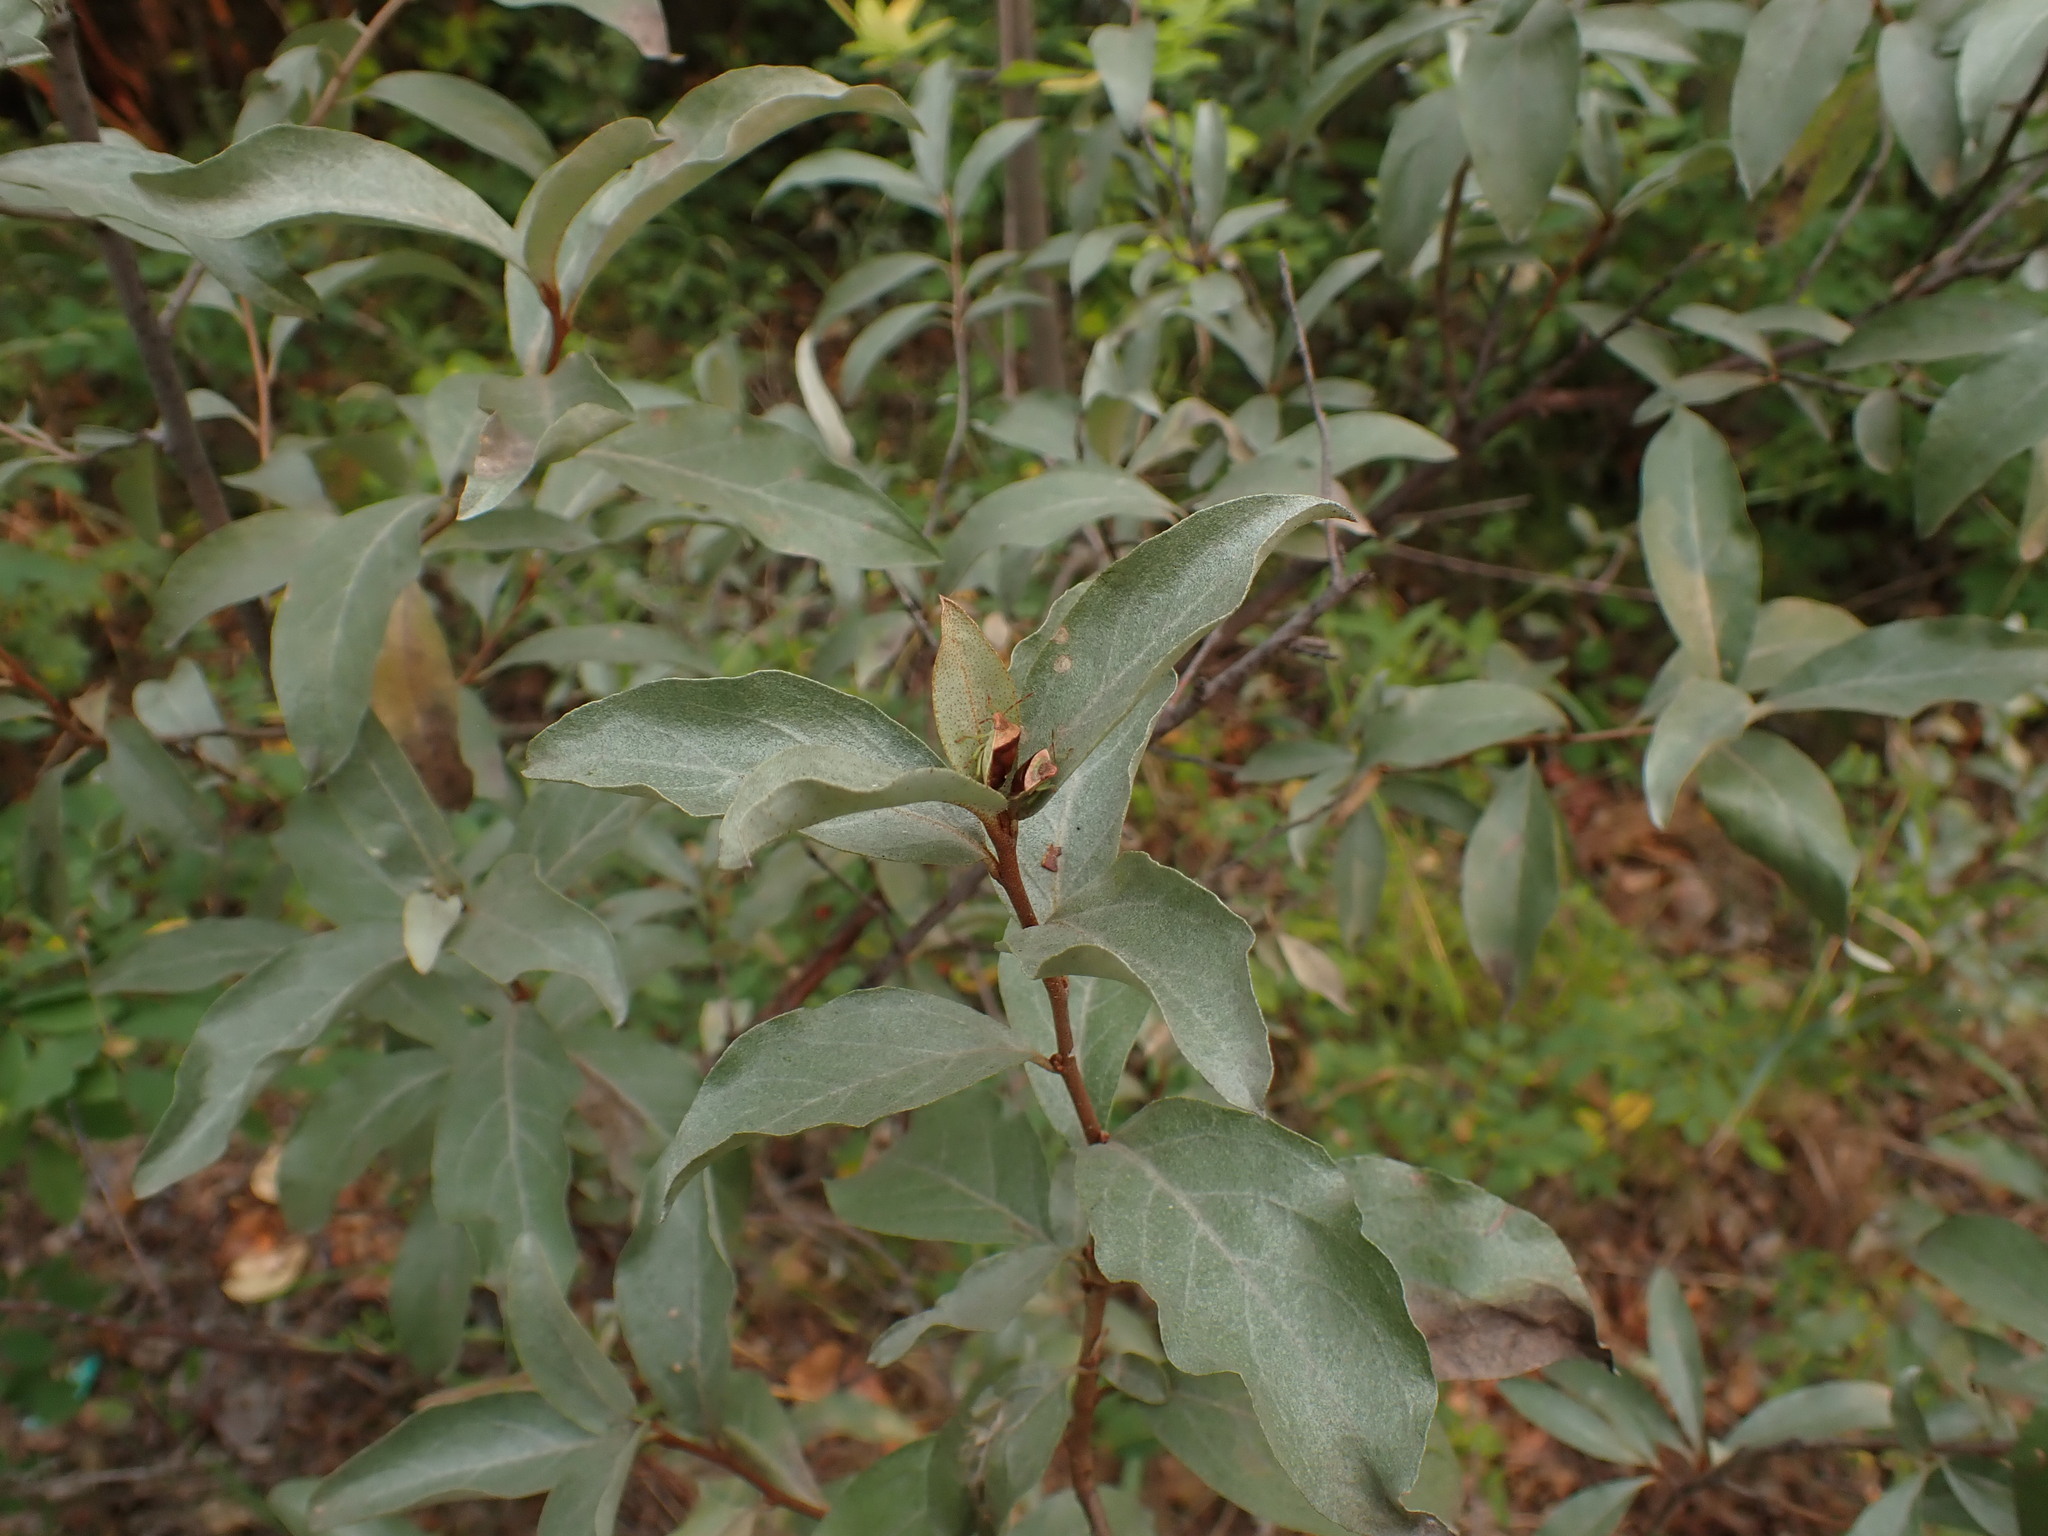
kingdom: Plantae
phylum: Tracheophyta
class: Magnoliopsida
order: Rosales
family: Elaeagnaceae
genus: Elaeagnus
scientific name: Elaeagnus commutata
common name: Silverberry
